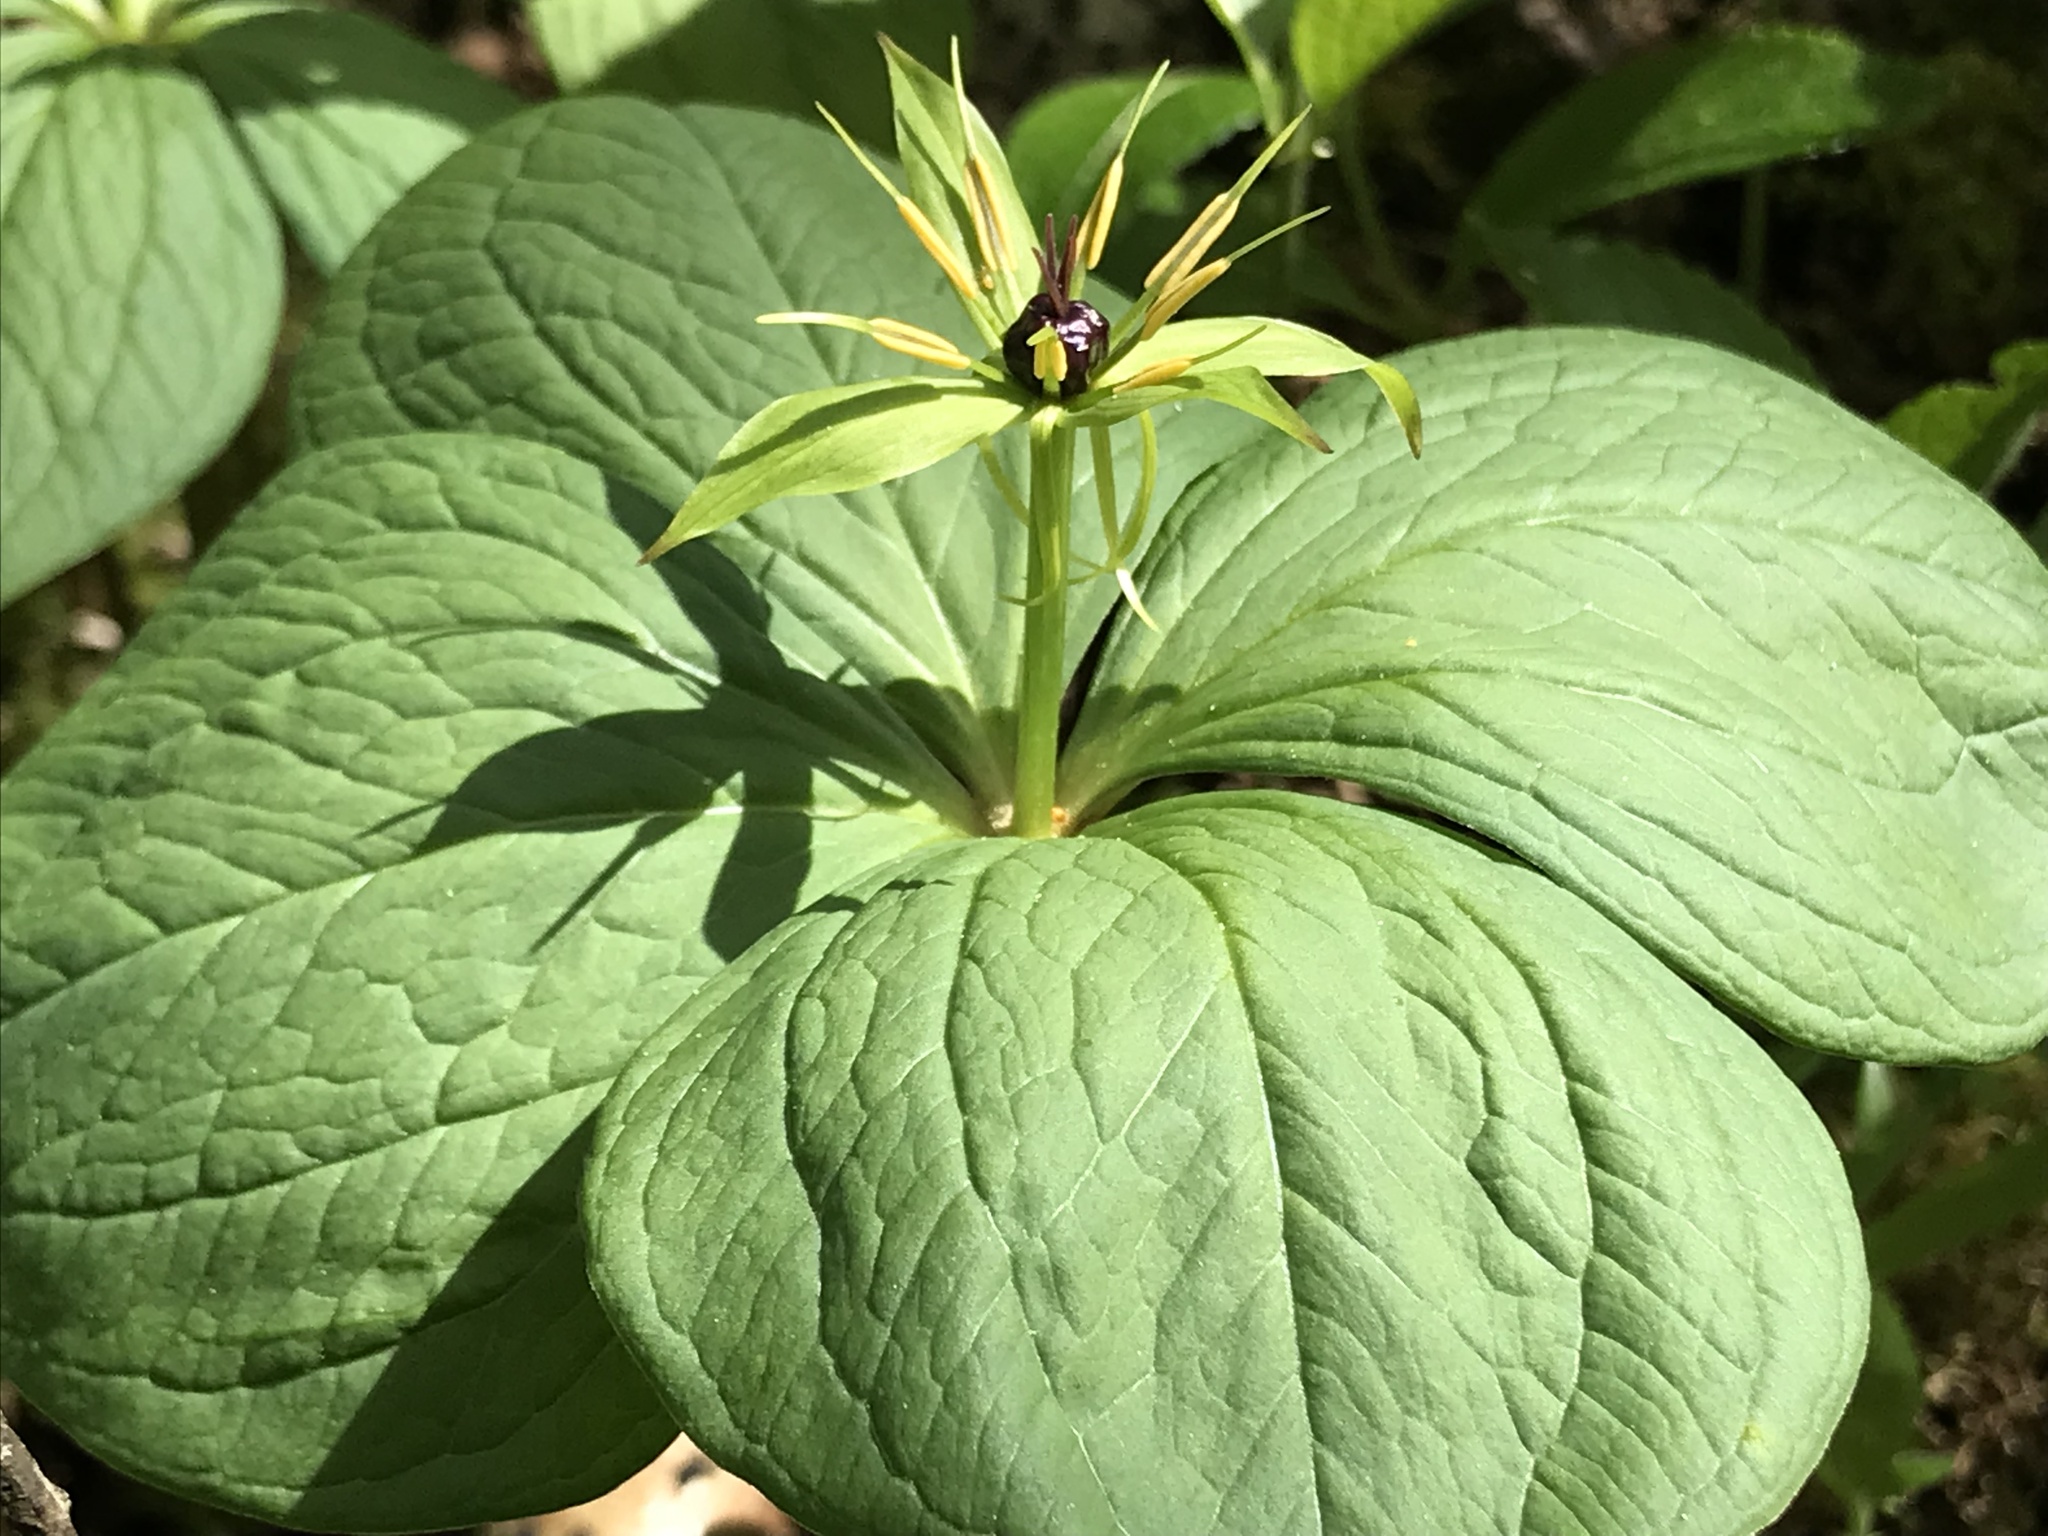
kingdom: Plantae
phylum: Tracheophyta
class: Liliopsida
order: Liliales
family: Melanthiaceae
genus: Paris
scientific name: Paris quadrifolia
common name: Herb-paris
